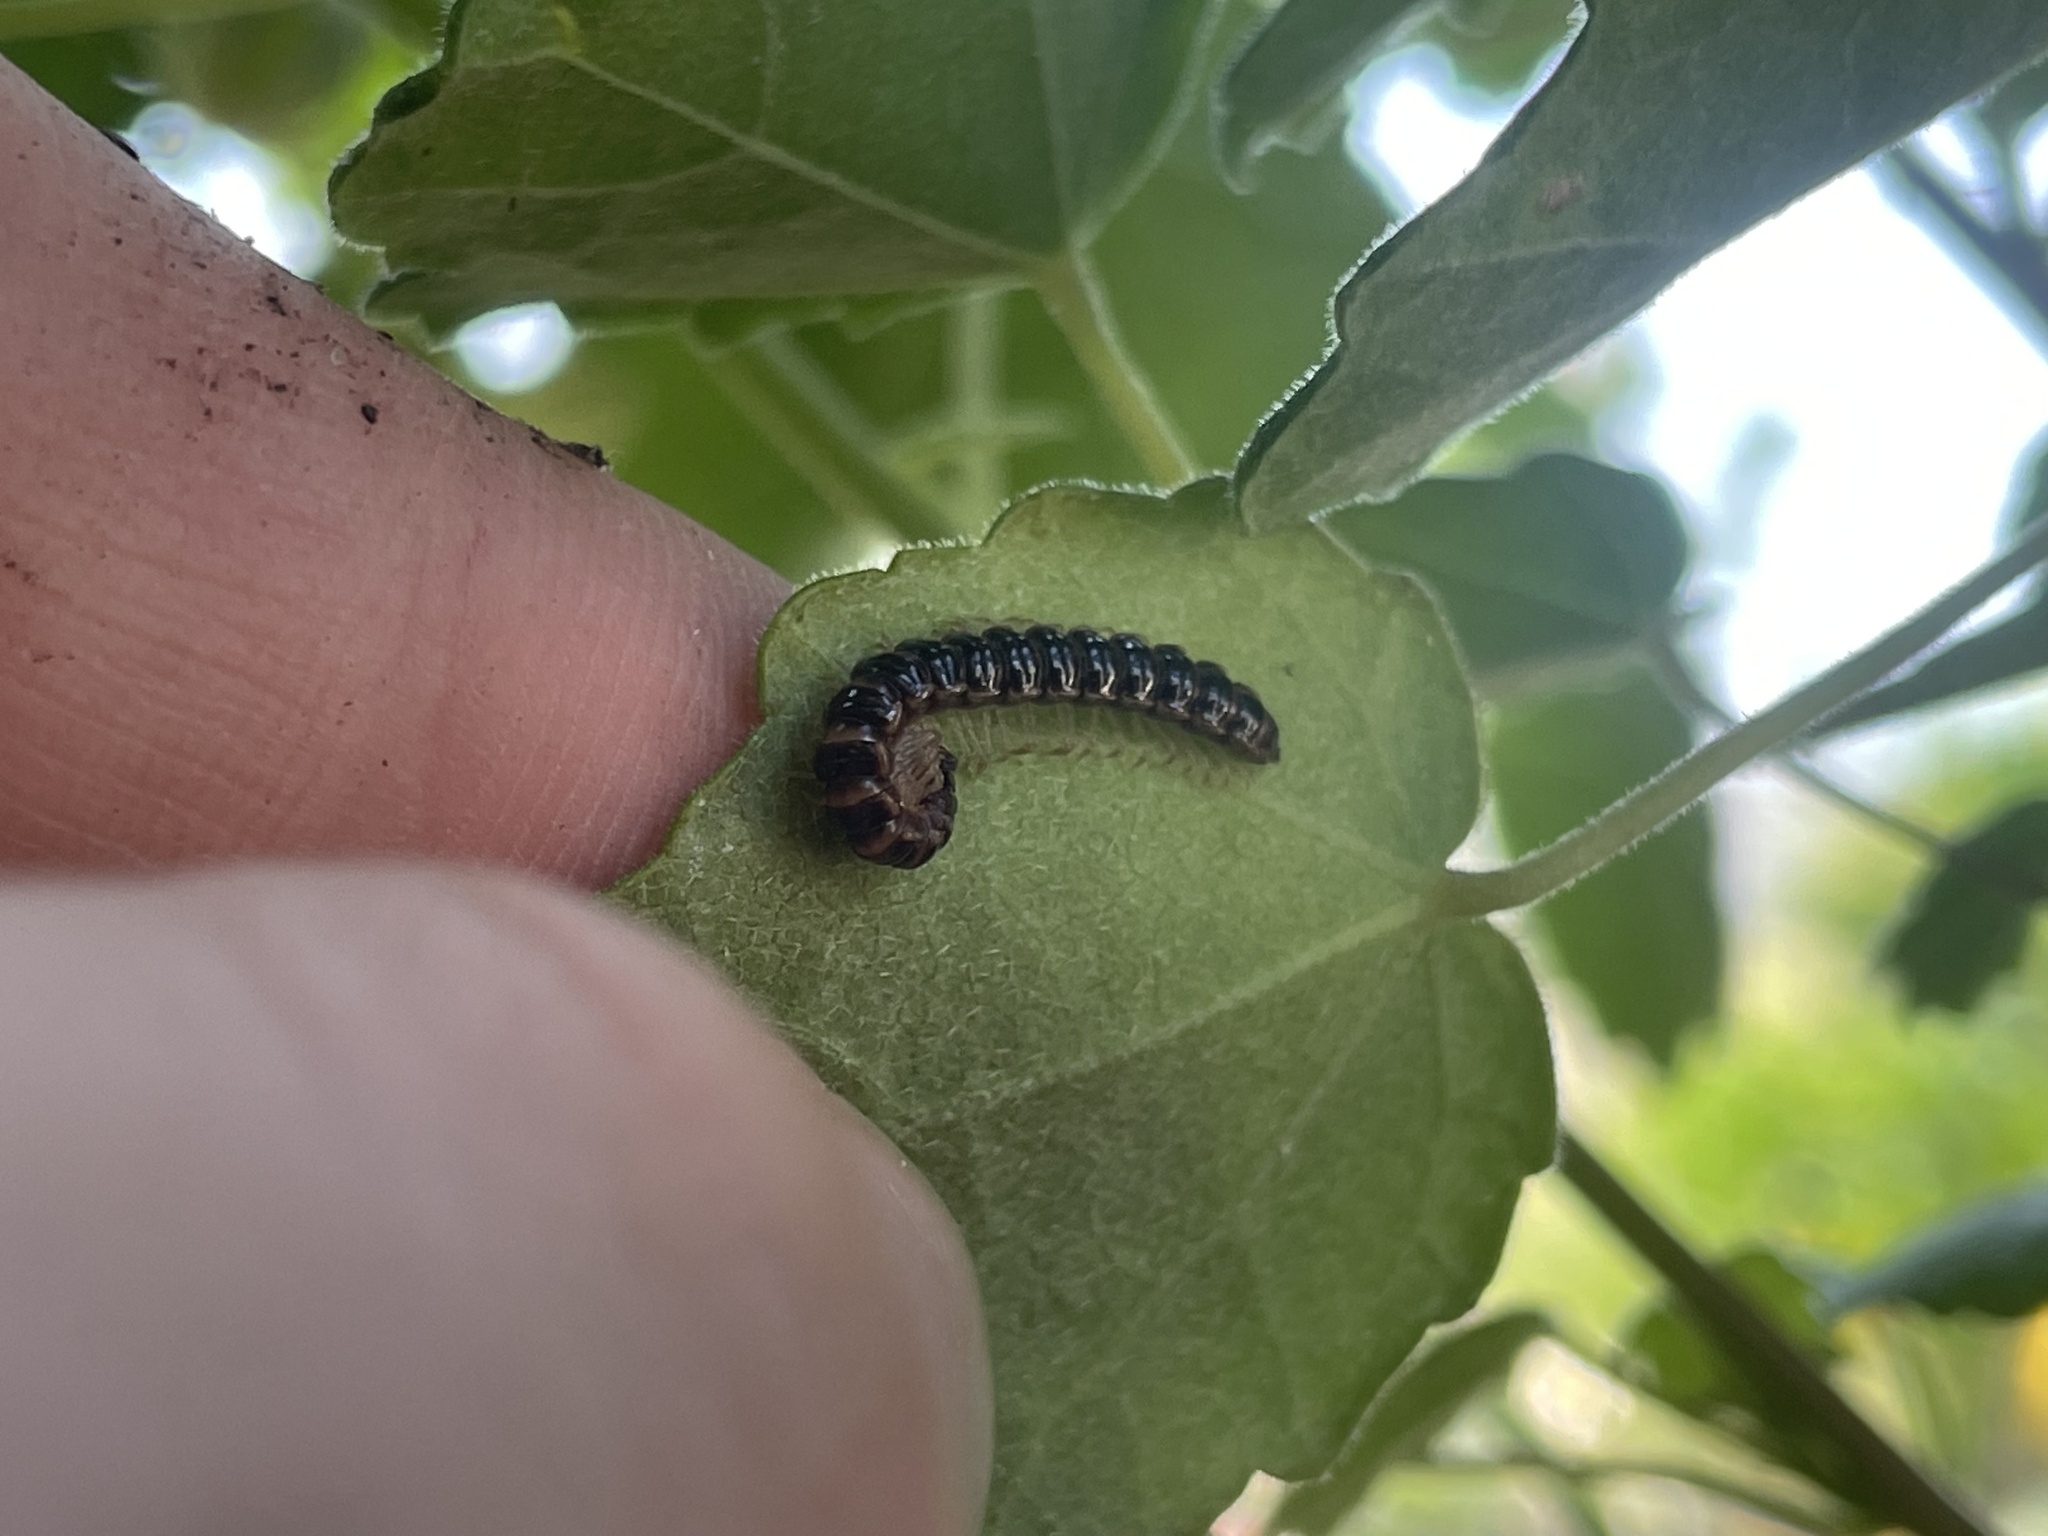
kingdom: Animalia
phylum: Arthropoda
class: Diplopoda
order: Polydesmida
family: Paradoxosomatidae
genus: Oxidus
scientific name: Oxidus gracilis
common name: Greenhouse millipede
